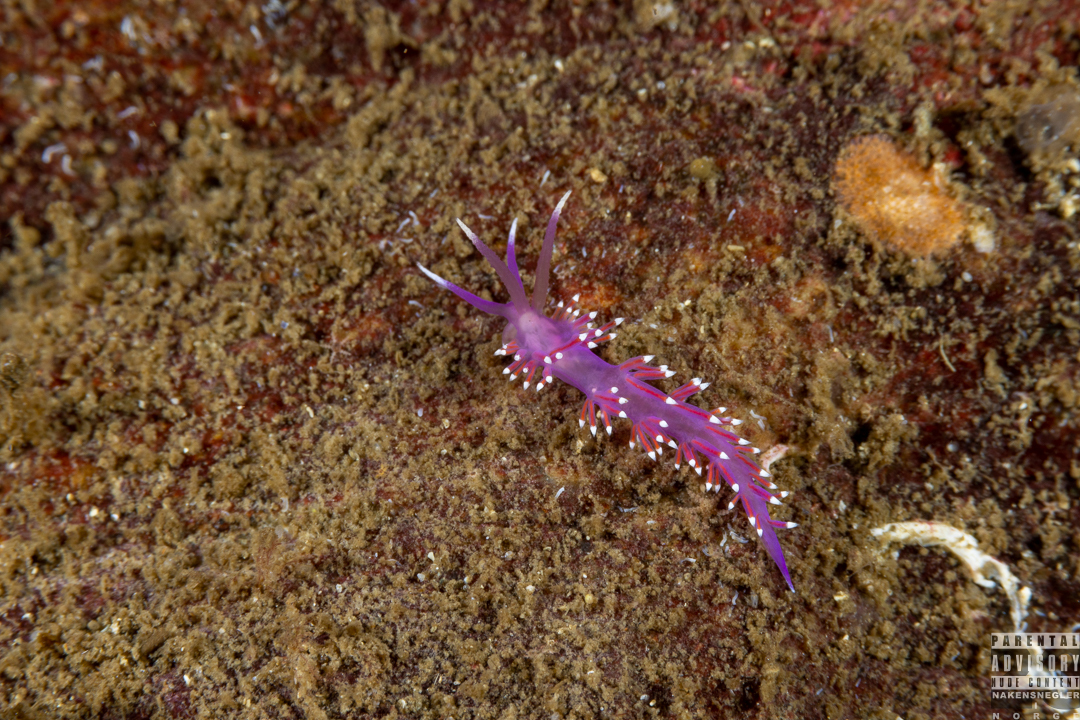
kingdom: Animalia
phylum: Mollusca
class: Gastropoda
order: Nudibranchia
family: Flabellinidae
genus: Edmundsella
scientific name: Edmundsella pedata
